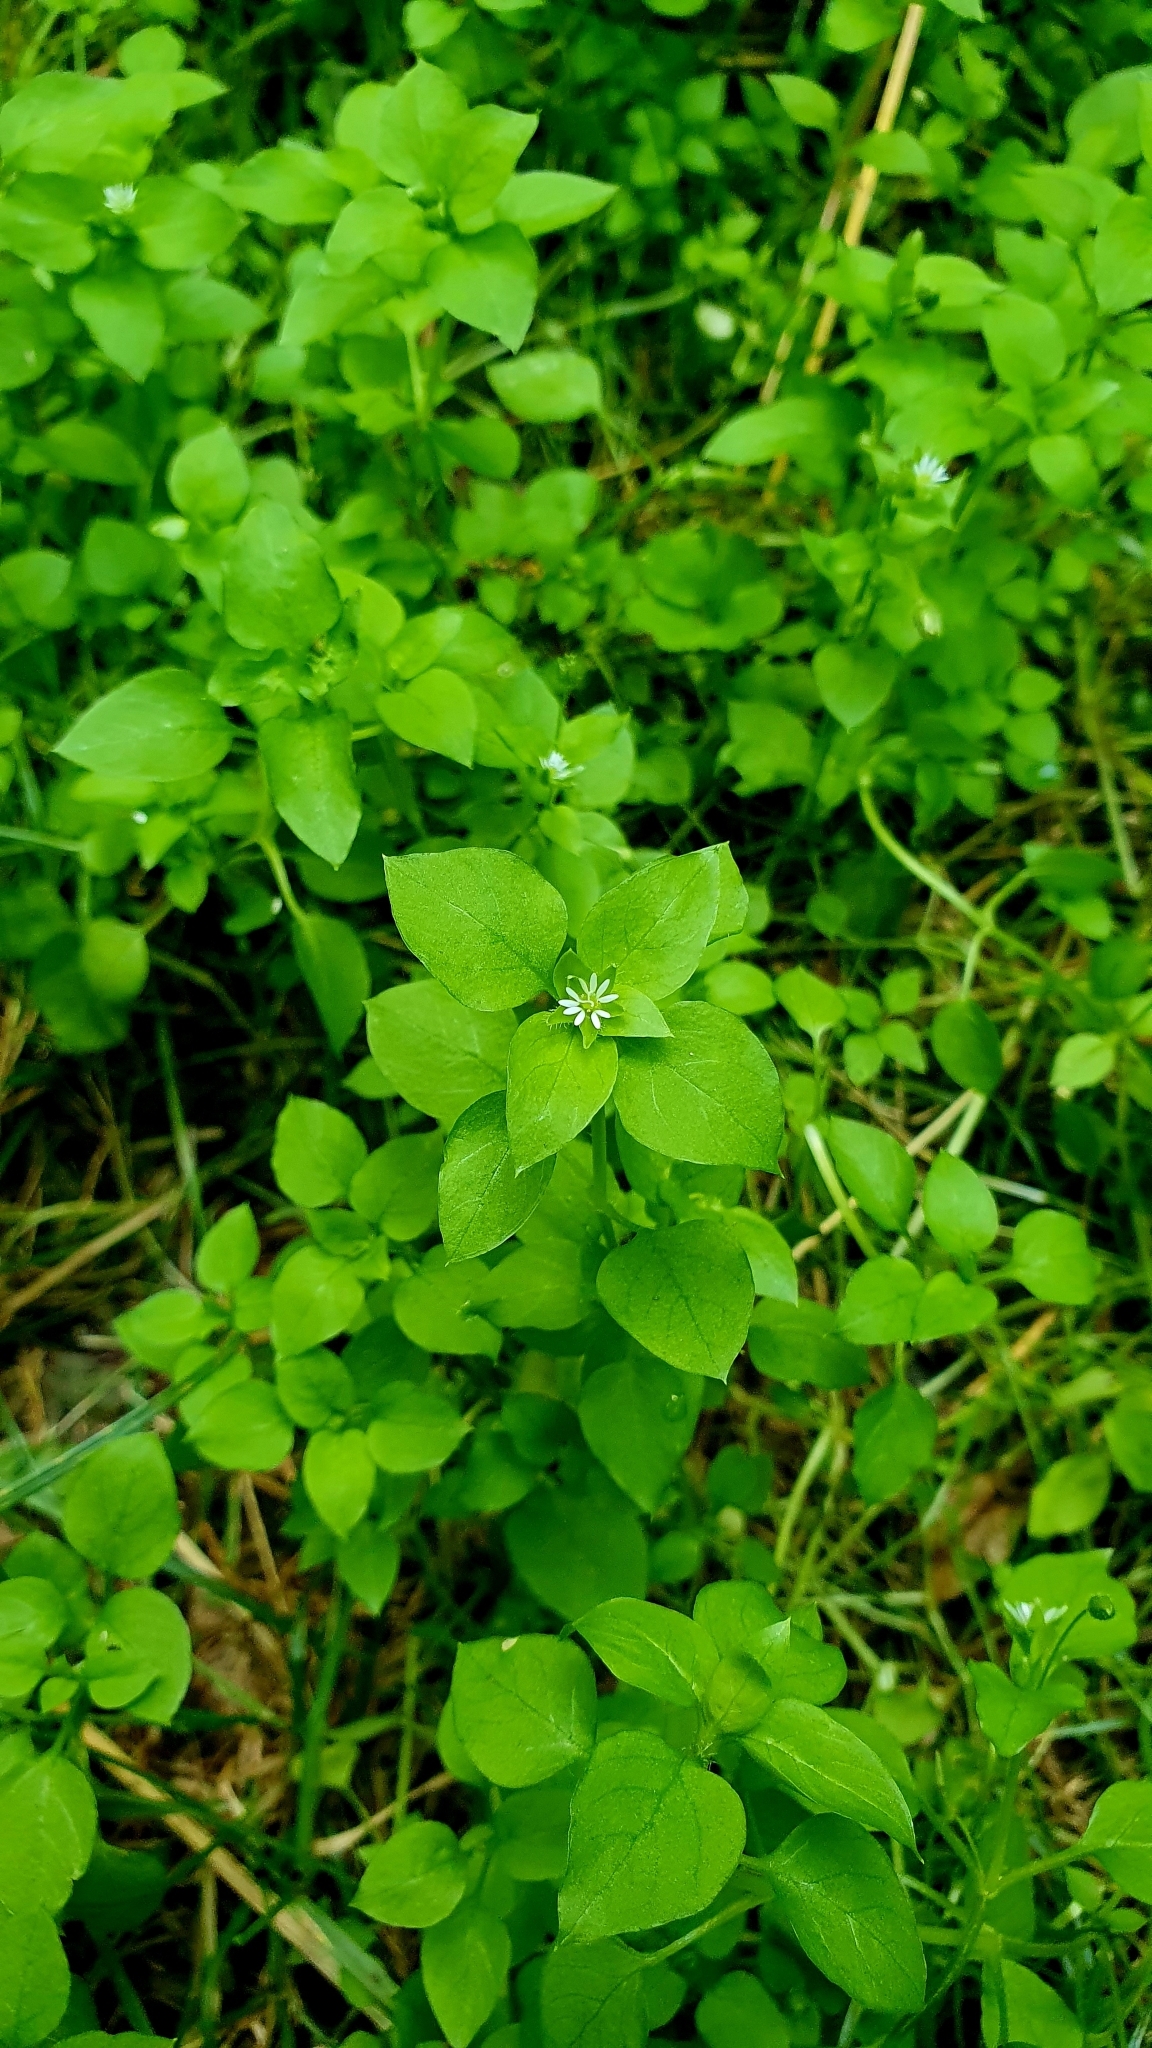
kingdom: Plantae
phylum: Tracheophyta
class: Magnoliopsida
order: Caryophyllales
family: Caryophyllaceae
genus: Stellaria
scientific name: Stellaria media
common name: Common chickweed
